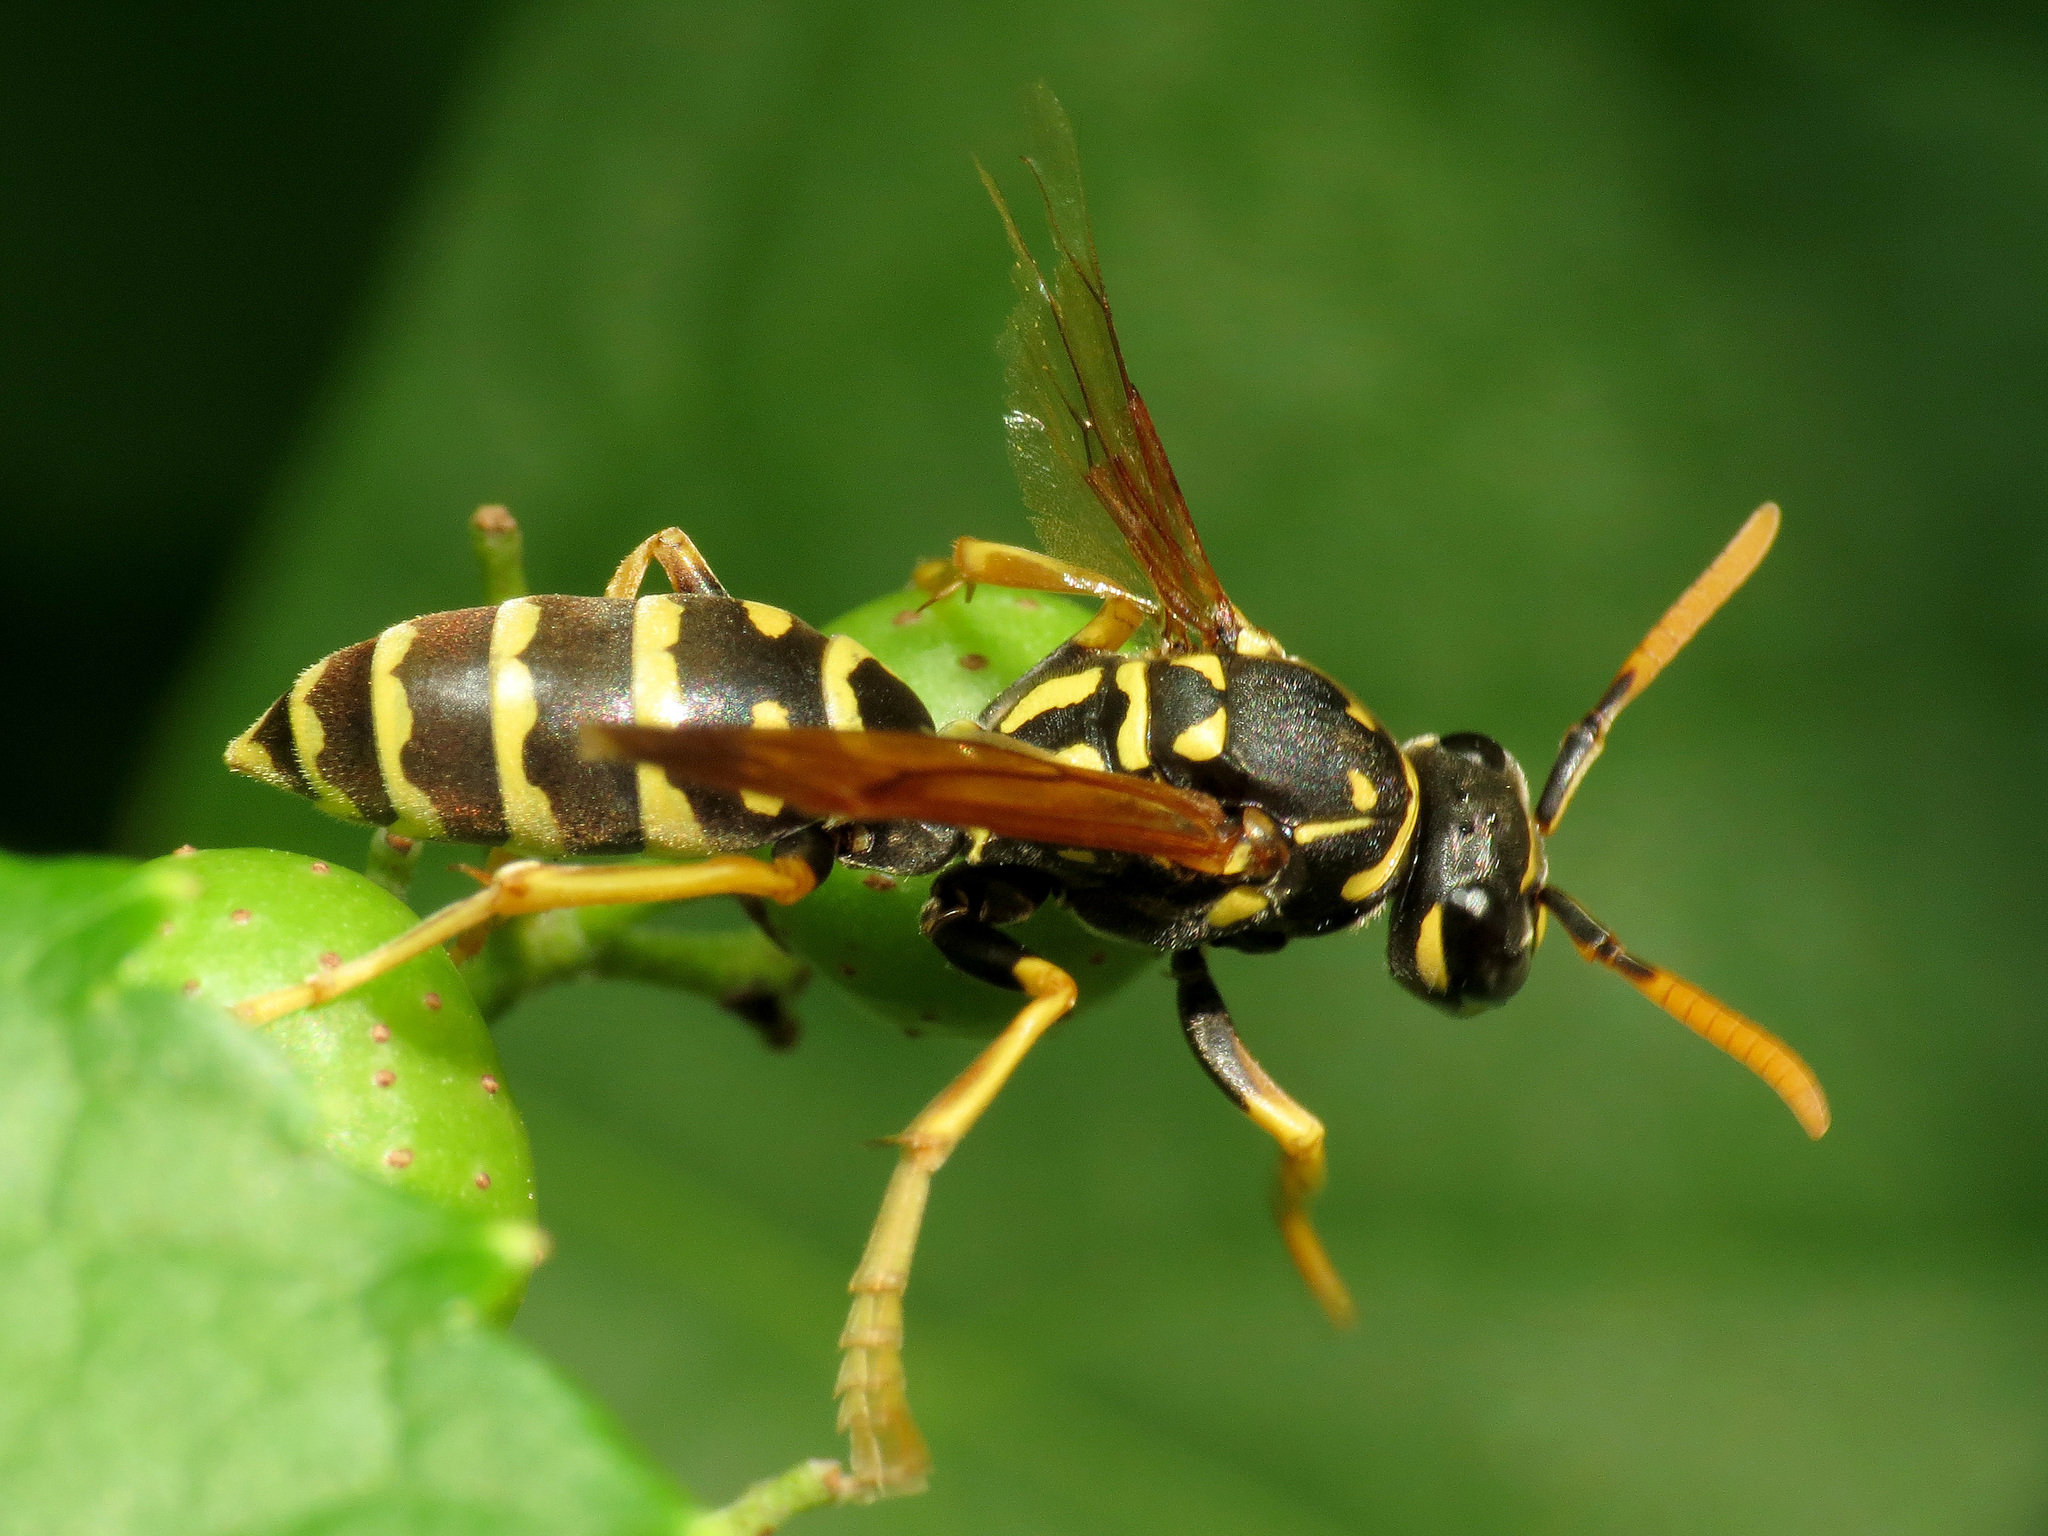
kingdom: Animalia
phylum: Arthropoda
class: Insecta
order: Hymenoptera
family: Eumenidae
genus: Polistes
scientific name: Polistes dominula
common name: Paper wasp
